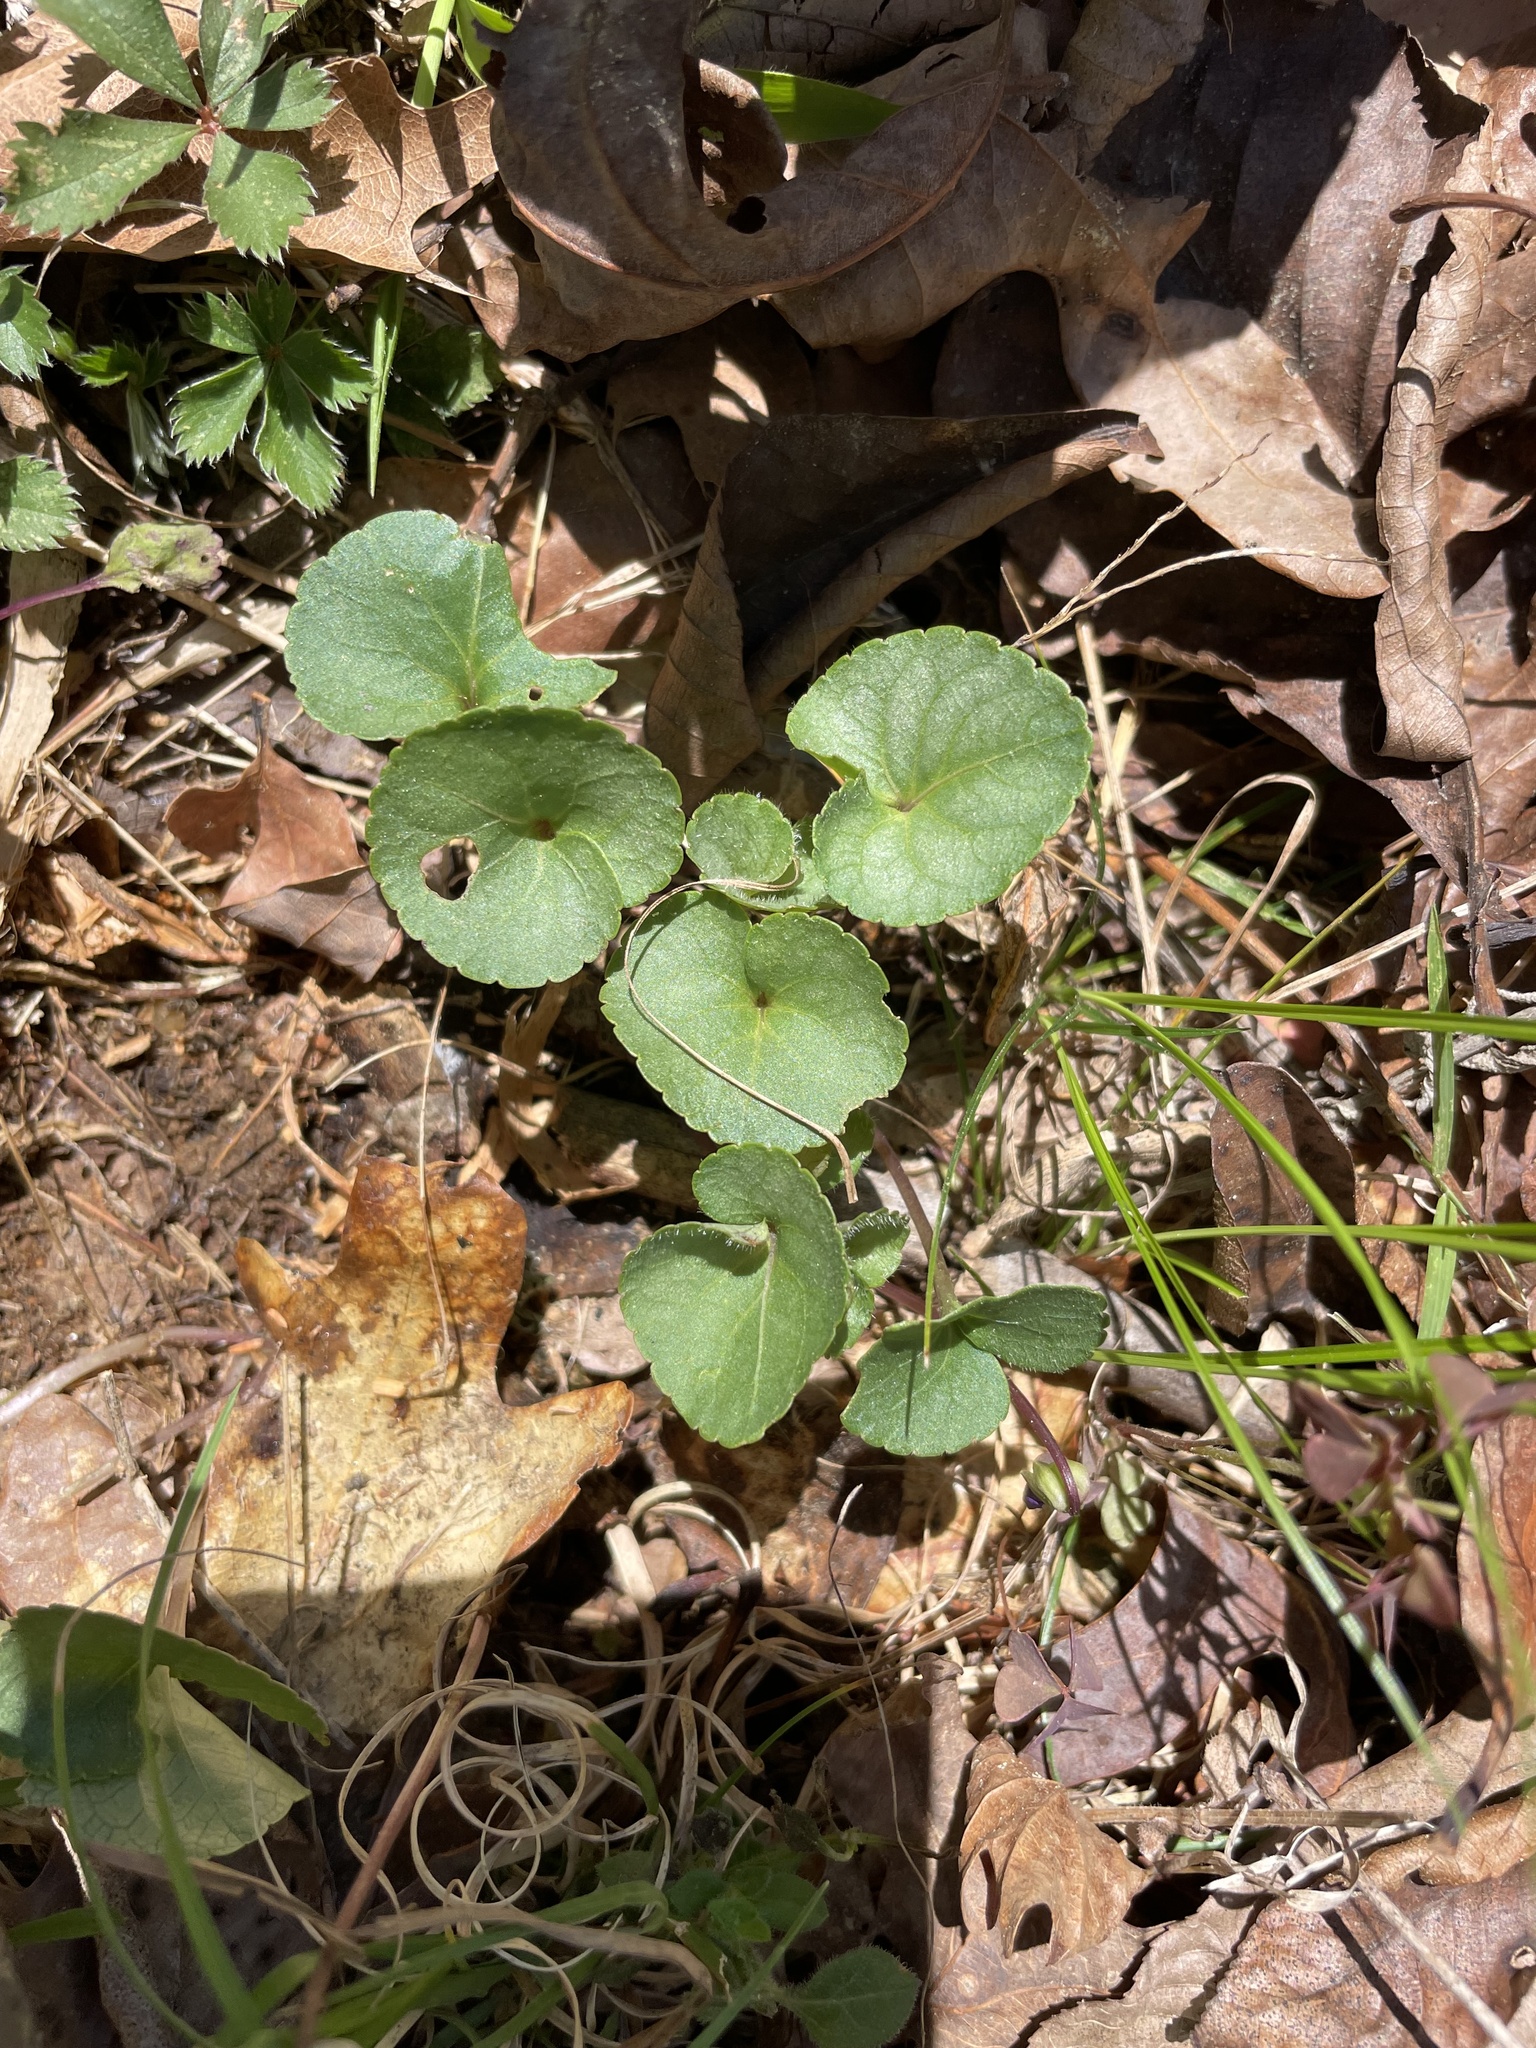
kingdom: Plantae
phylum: Tracheophyta
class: Magnoliopsida
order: Malpighiales
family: Violaceae
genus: Viola
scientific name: Viola hirsutula
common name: Southern wood violet
